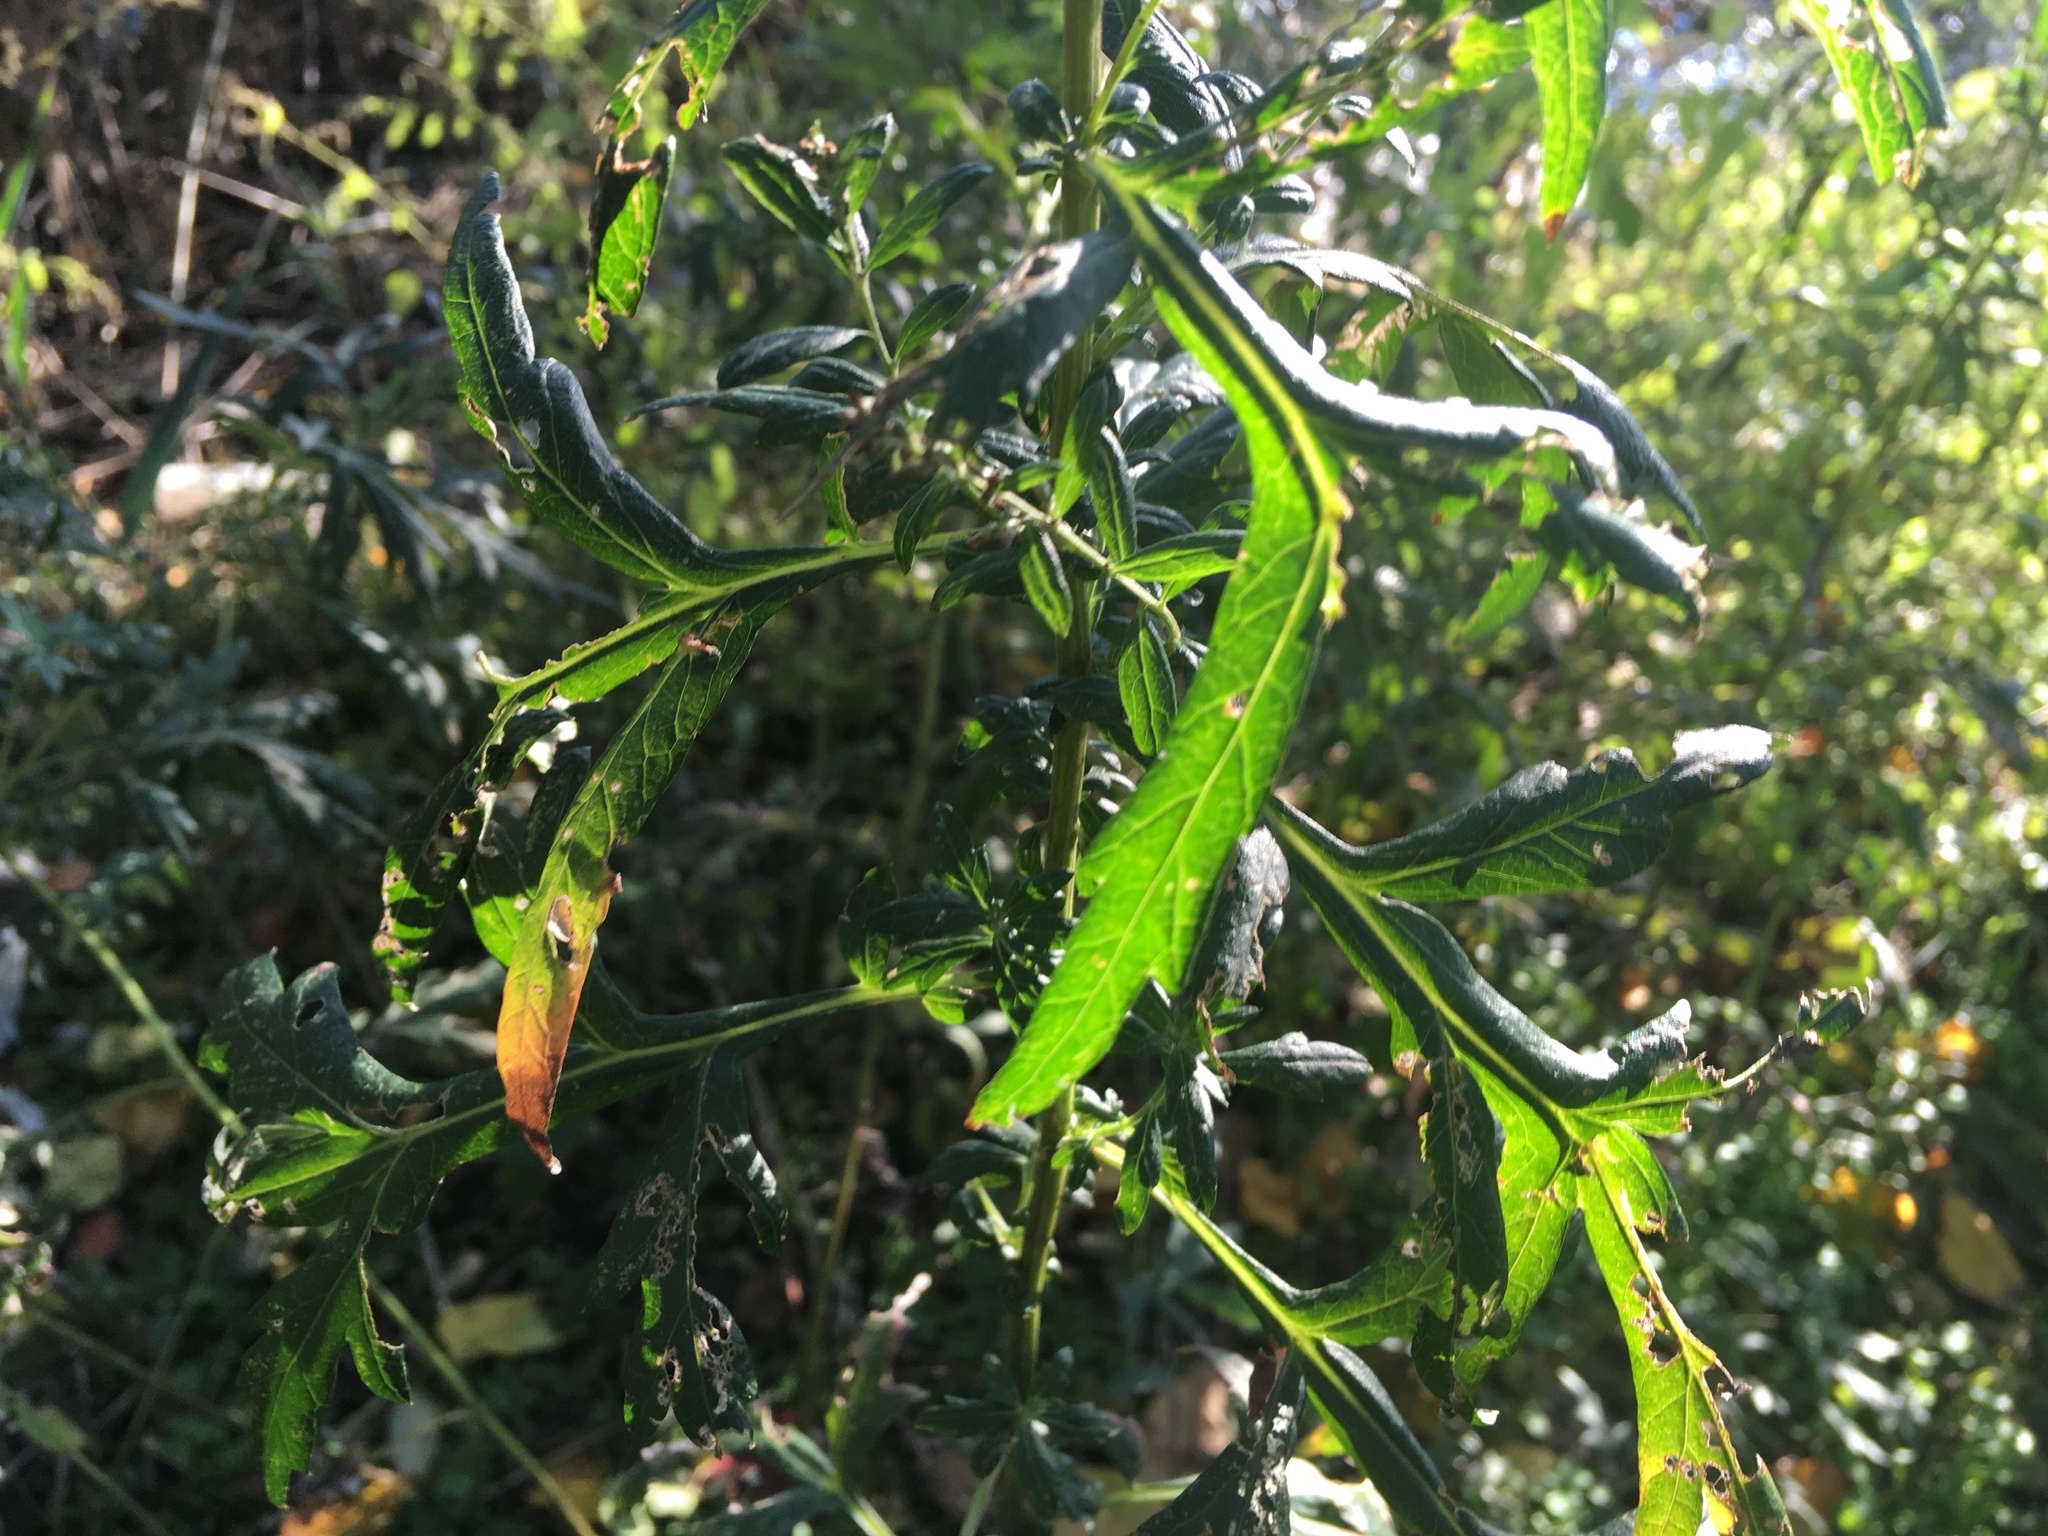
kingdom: Plantae
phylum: Tracheophyta
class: Magnoliopsida
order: Asterales
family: Asteraceae
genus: Artemisia
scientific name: Artemisia vulgaris
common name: Mugwort
